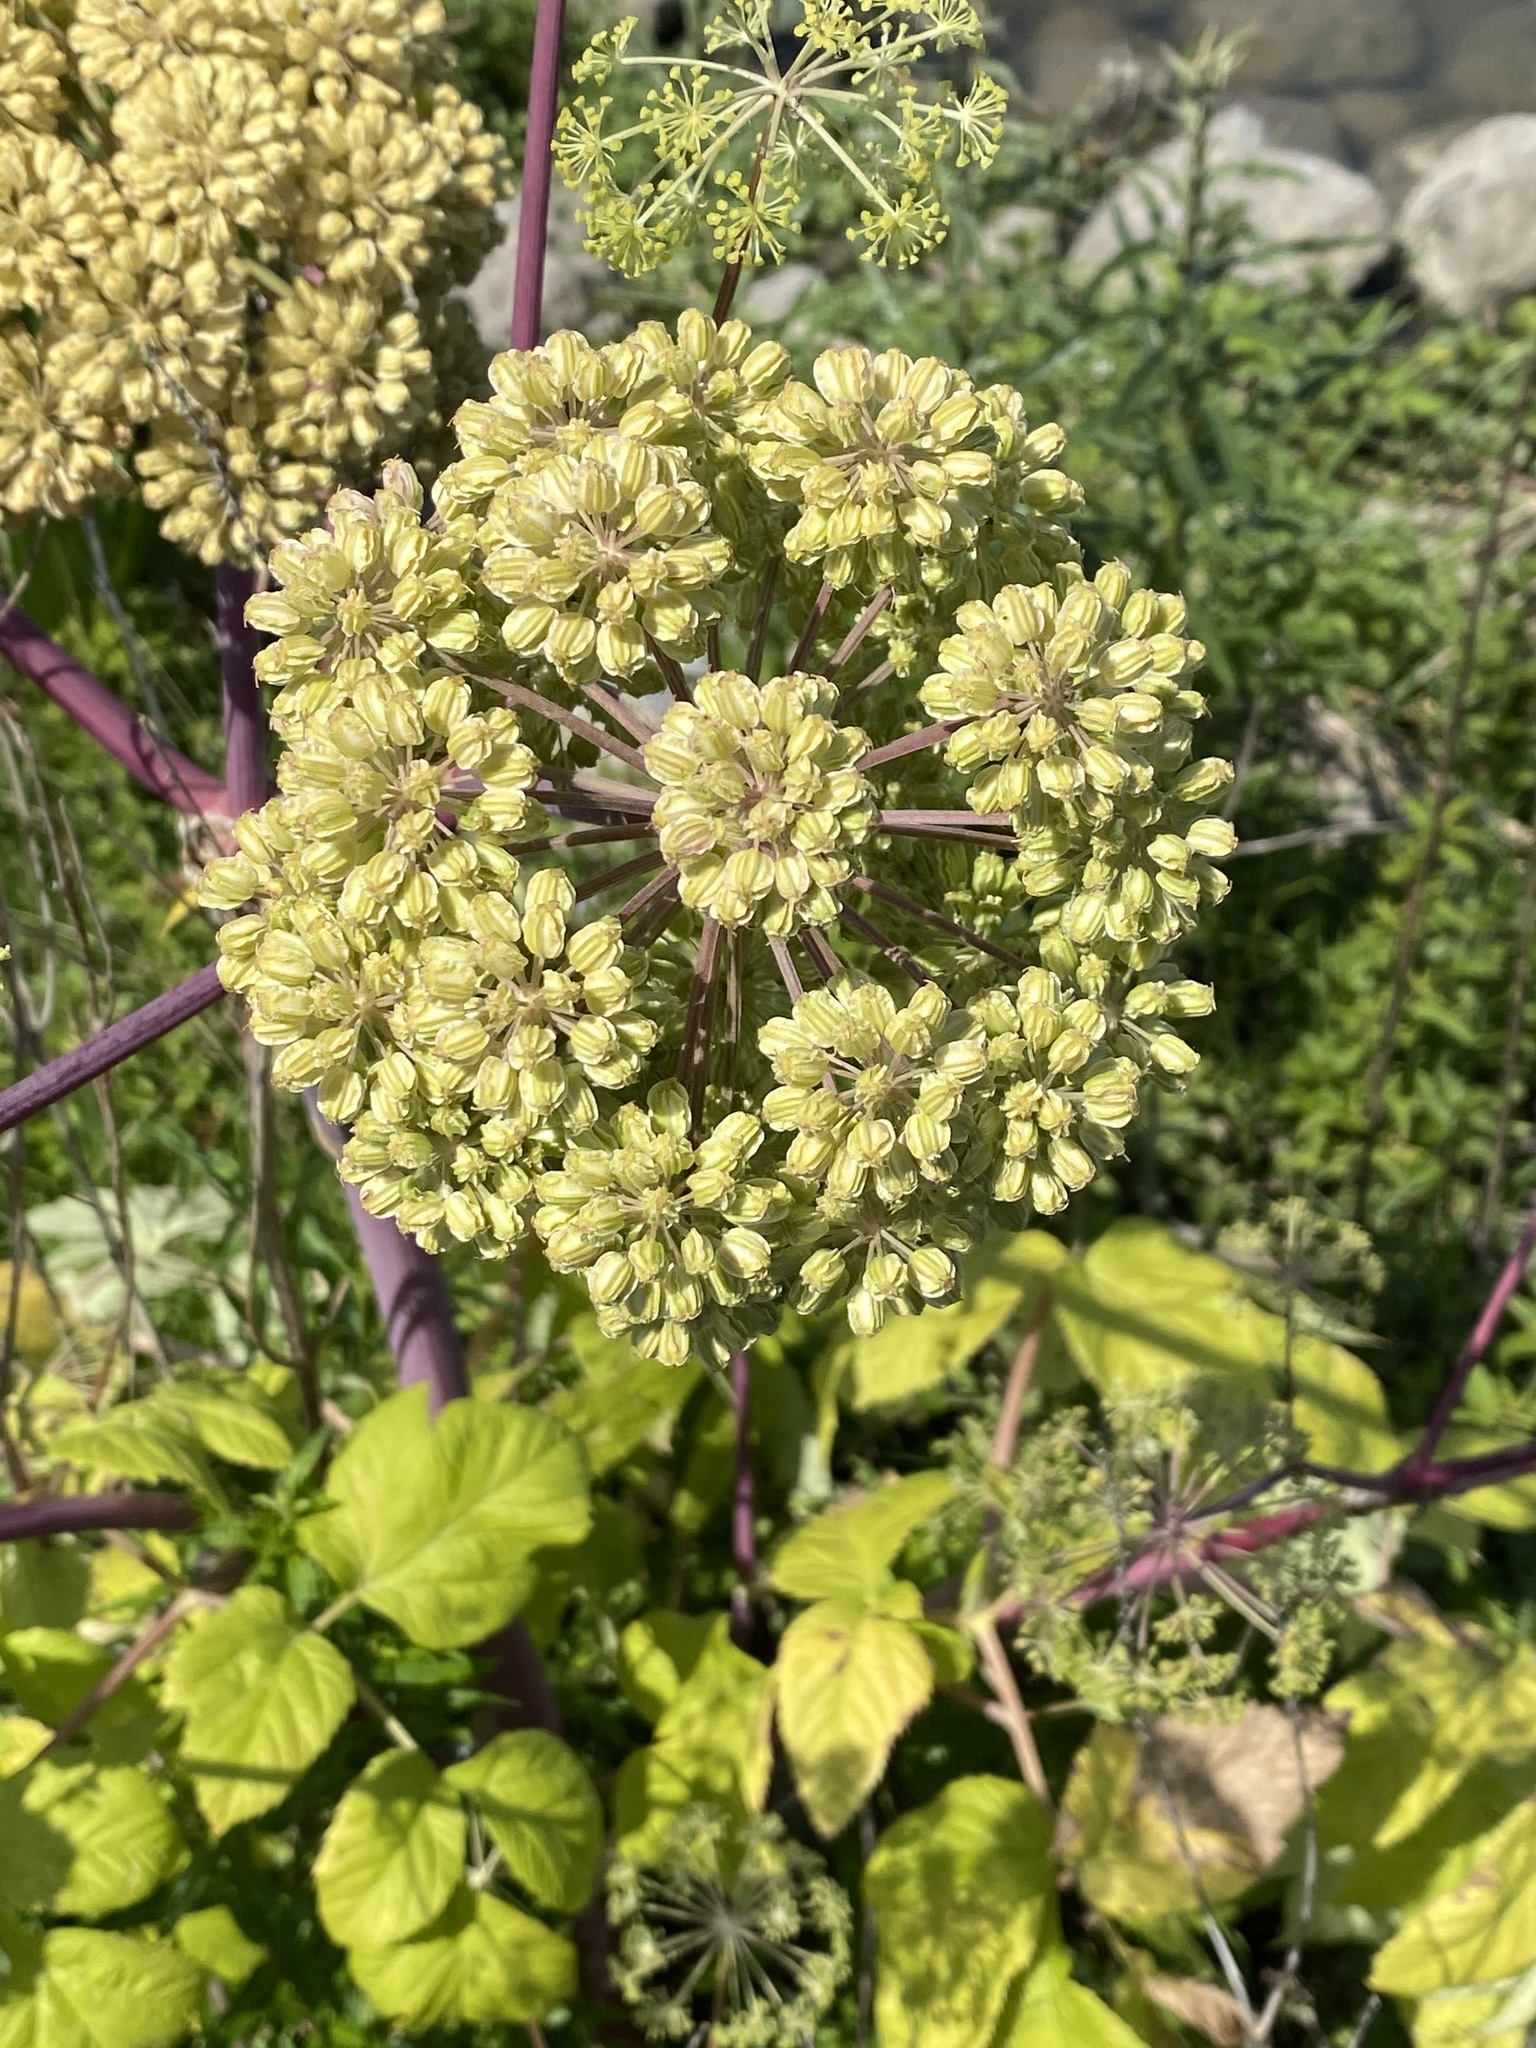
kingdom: Plantae
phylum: Tracheophyta
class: Magnoliopsida
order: Apiales
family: Apiaceae
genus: Angelica
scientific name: Angelica archangelica
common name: Garden angelica
